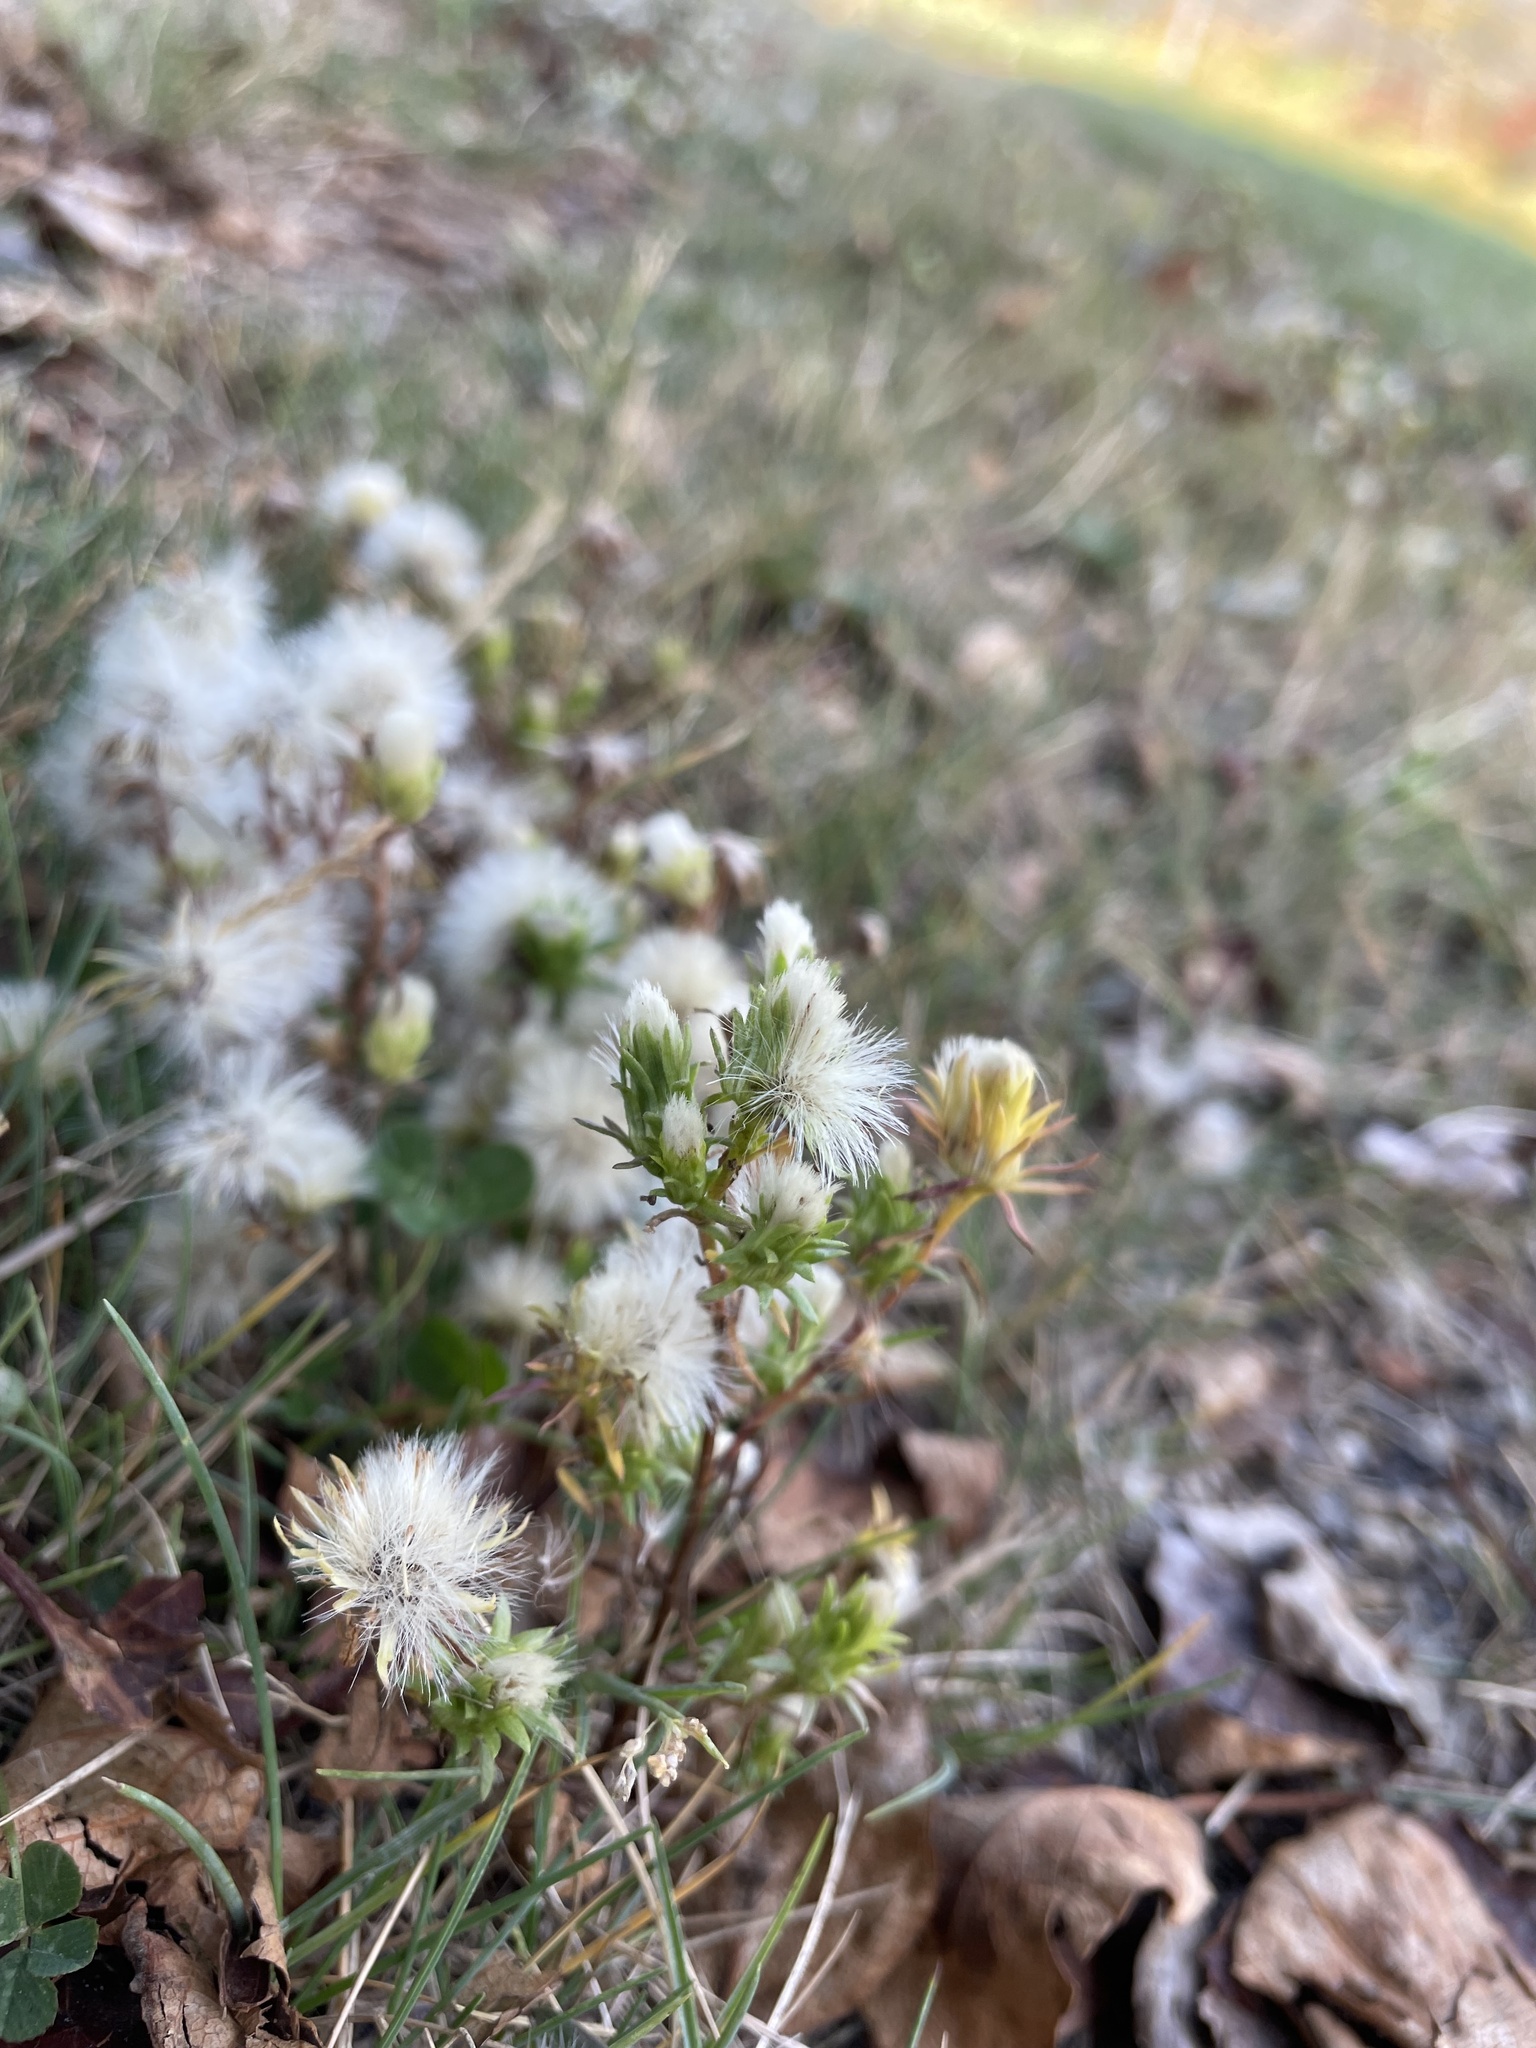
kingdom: Plantae
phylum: Tracheophyta
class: Magnoliopsida
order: Asterales
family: Asteraceae
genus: Symphyotrichum
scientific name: Symphyotrichum ciliatum
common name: Rayless annual aster
